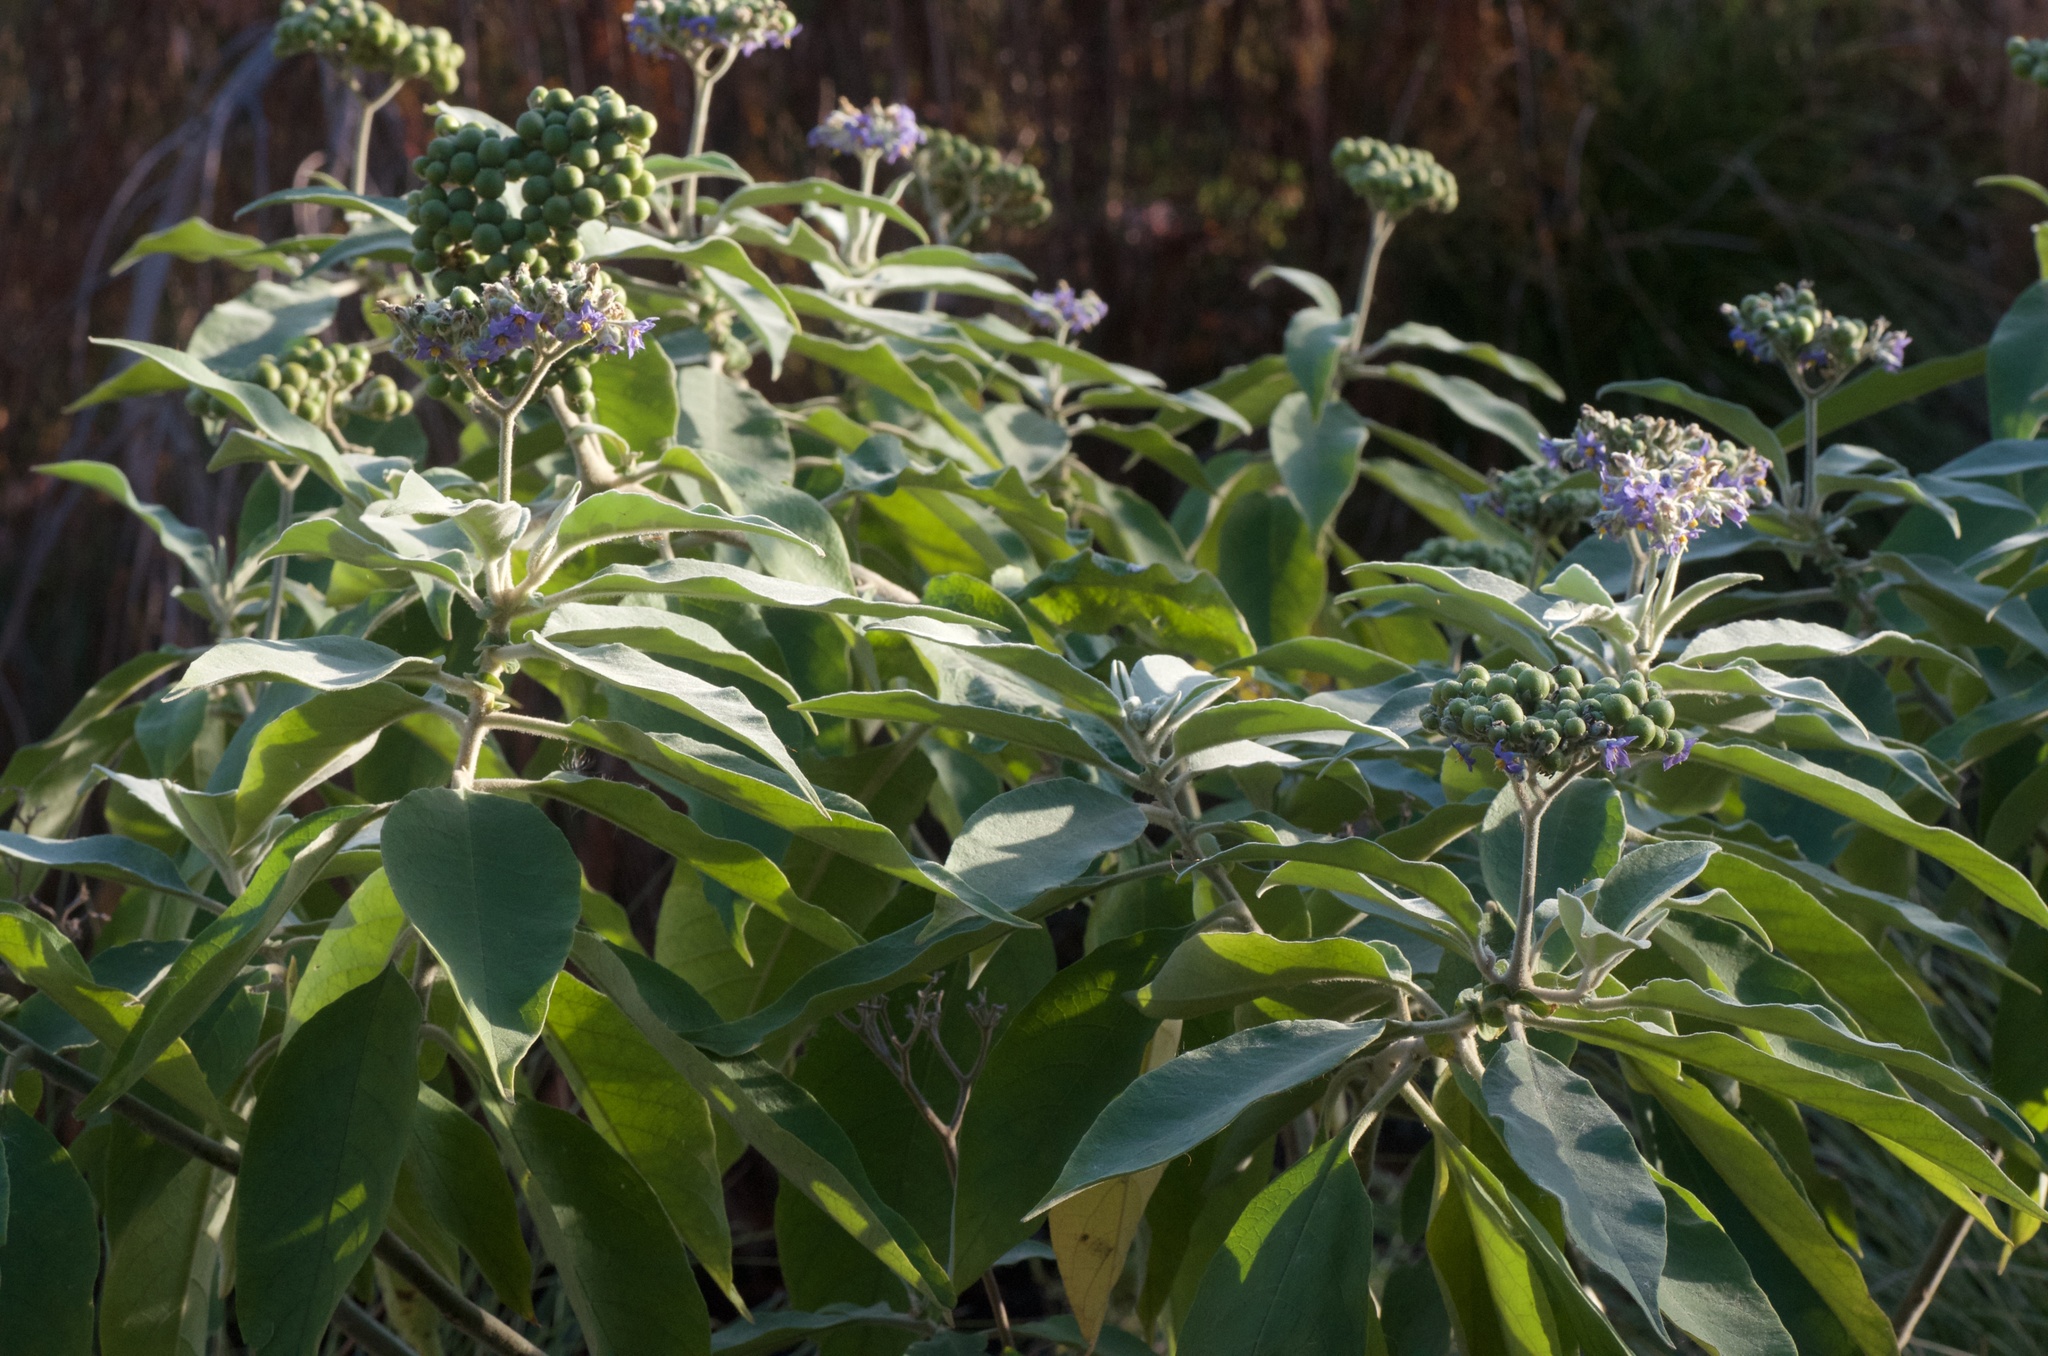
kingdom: Plantae
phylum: Tracheophyta
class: Magnoliopsida
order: Solanales
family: Solanaceae
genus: Solanum
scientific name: Solanum mauritianum
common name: Earleaf nightshade
